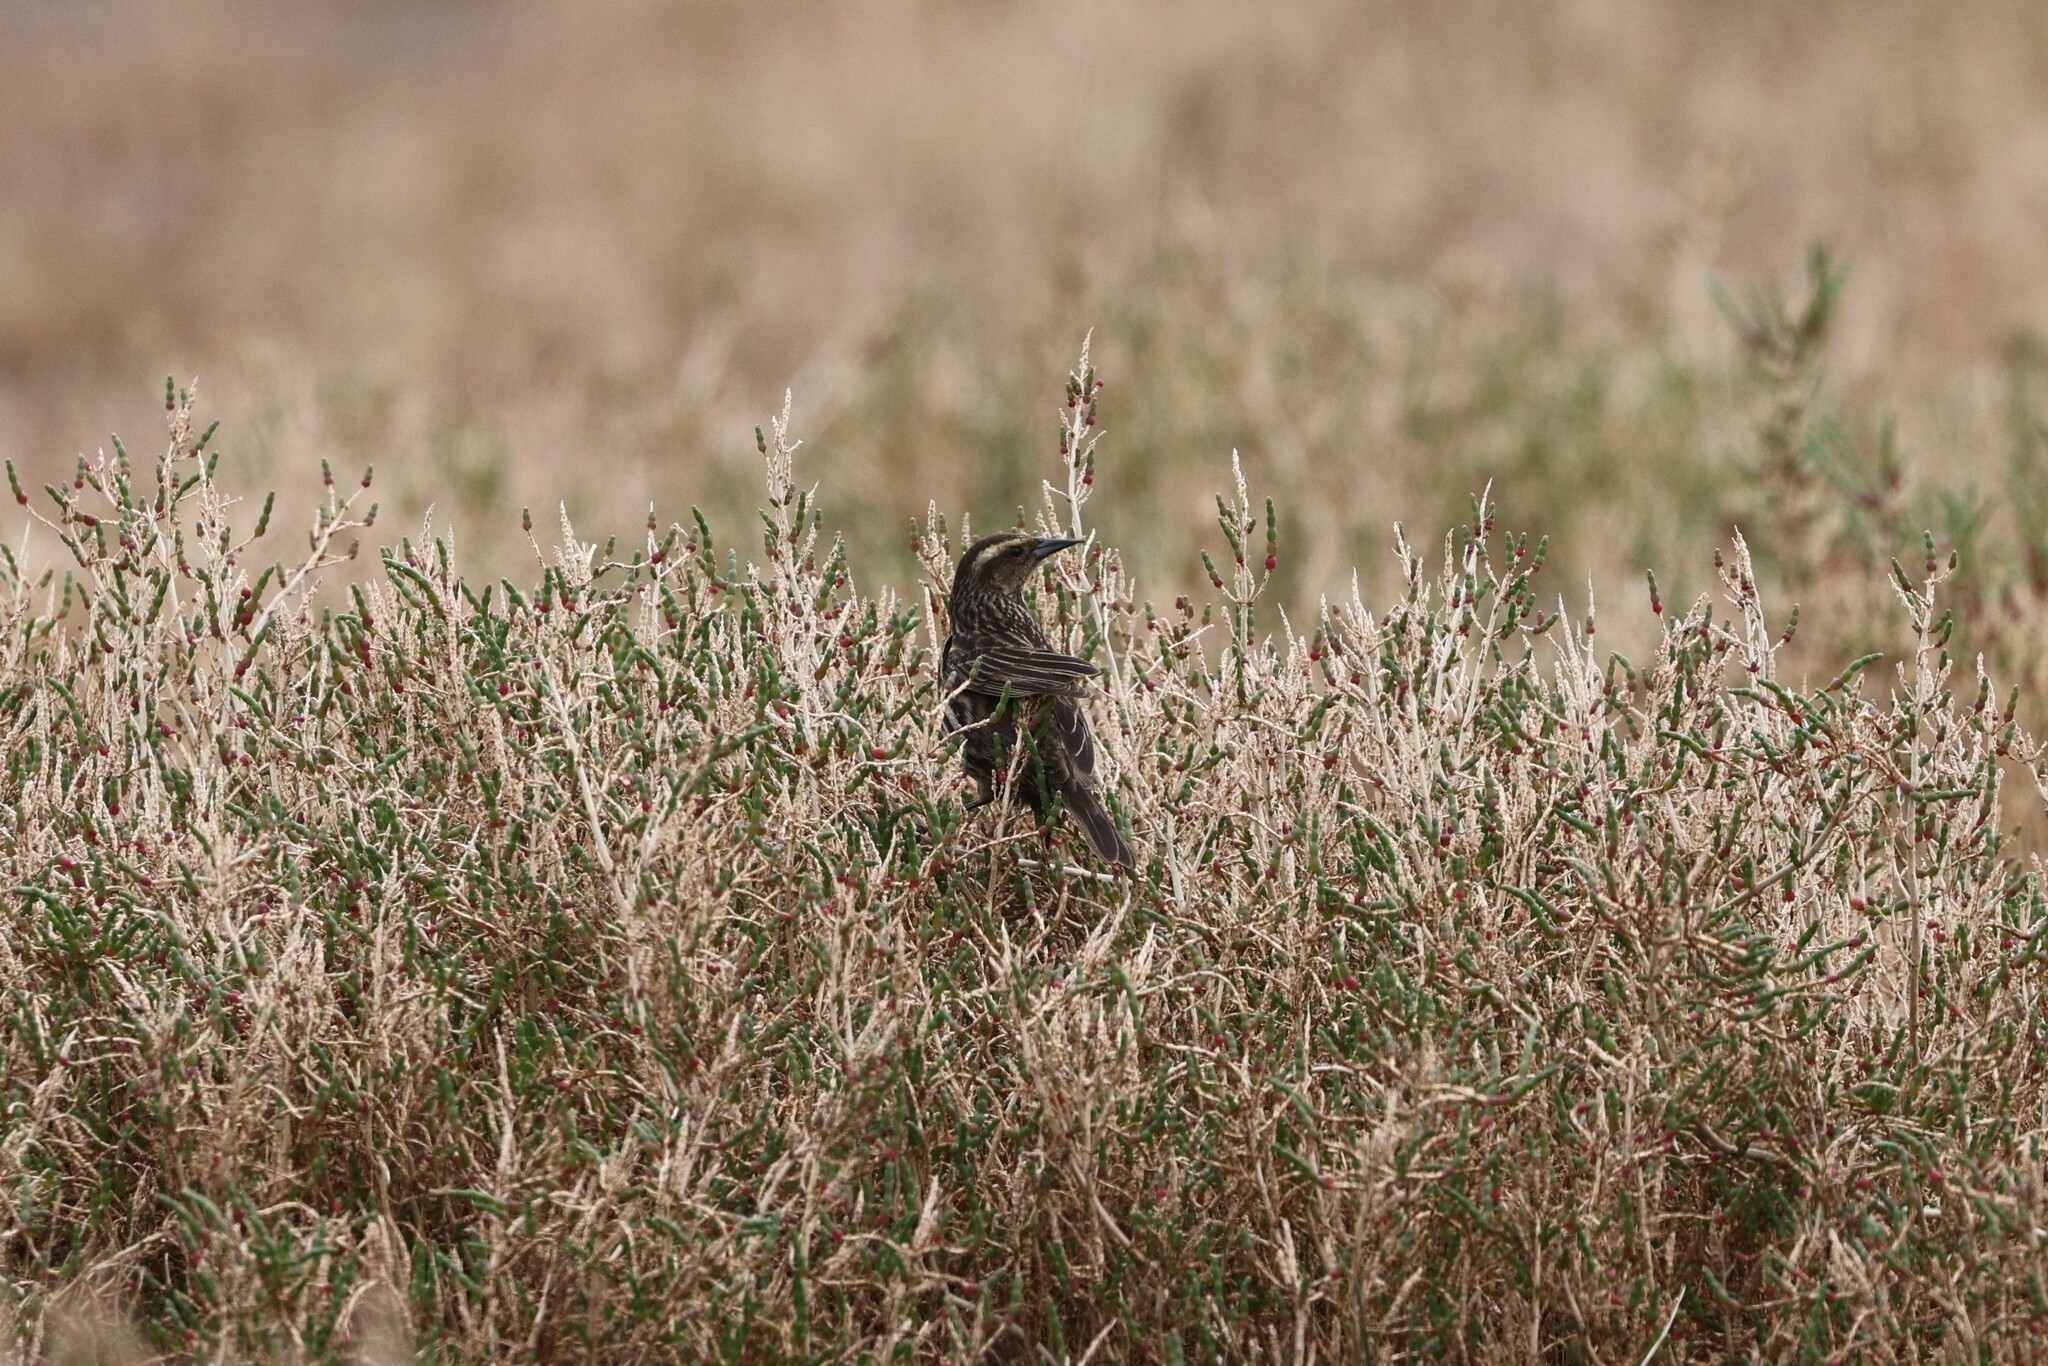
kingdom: Animalia
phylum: Chordata
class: Aves
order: Passeriformes
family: Icteridae
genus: Sturnella
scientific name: Sturnella loyca
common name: Long-tailed meadowlark
